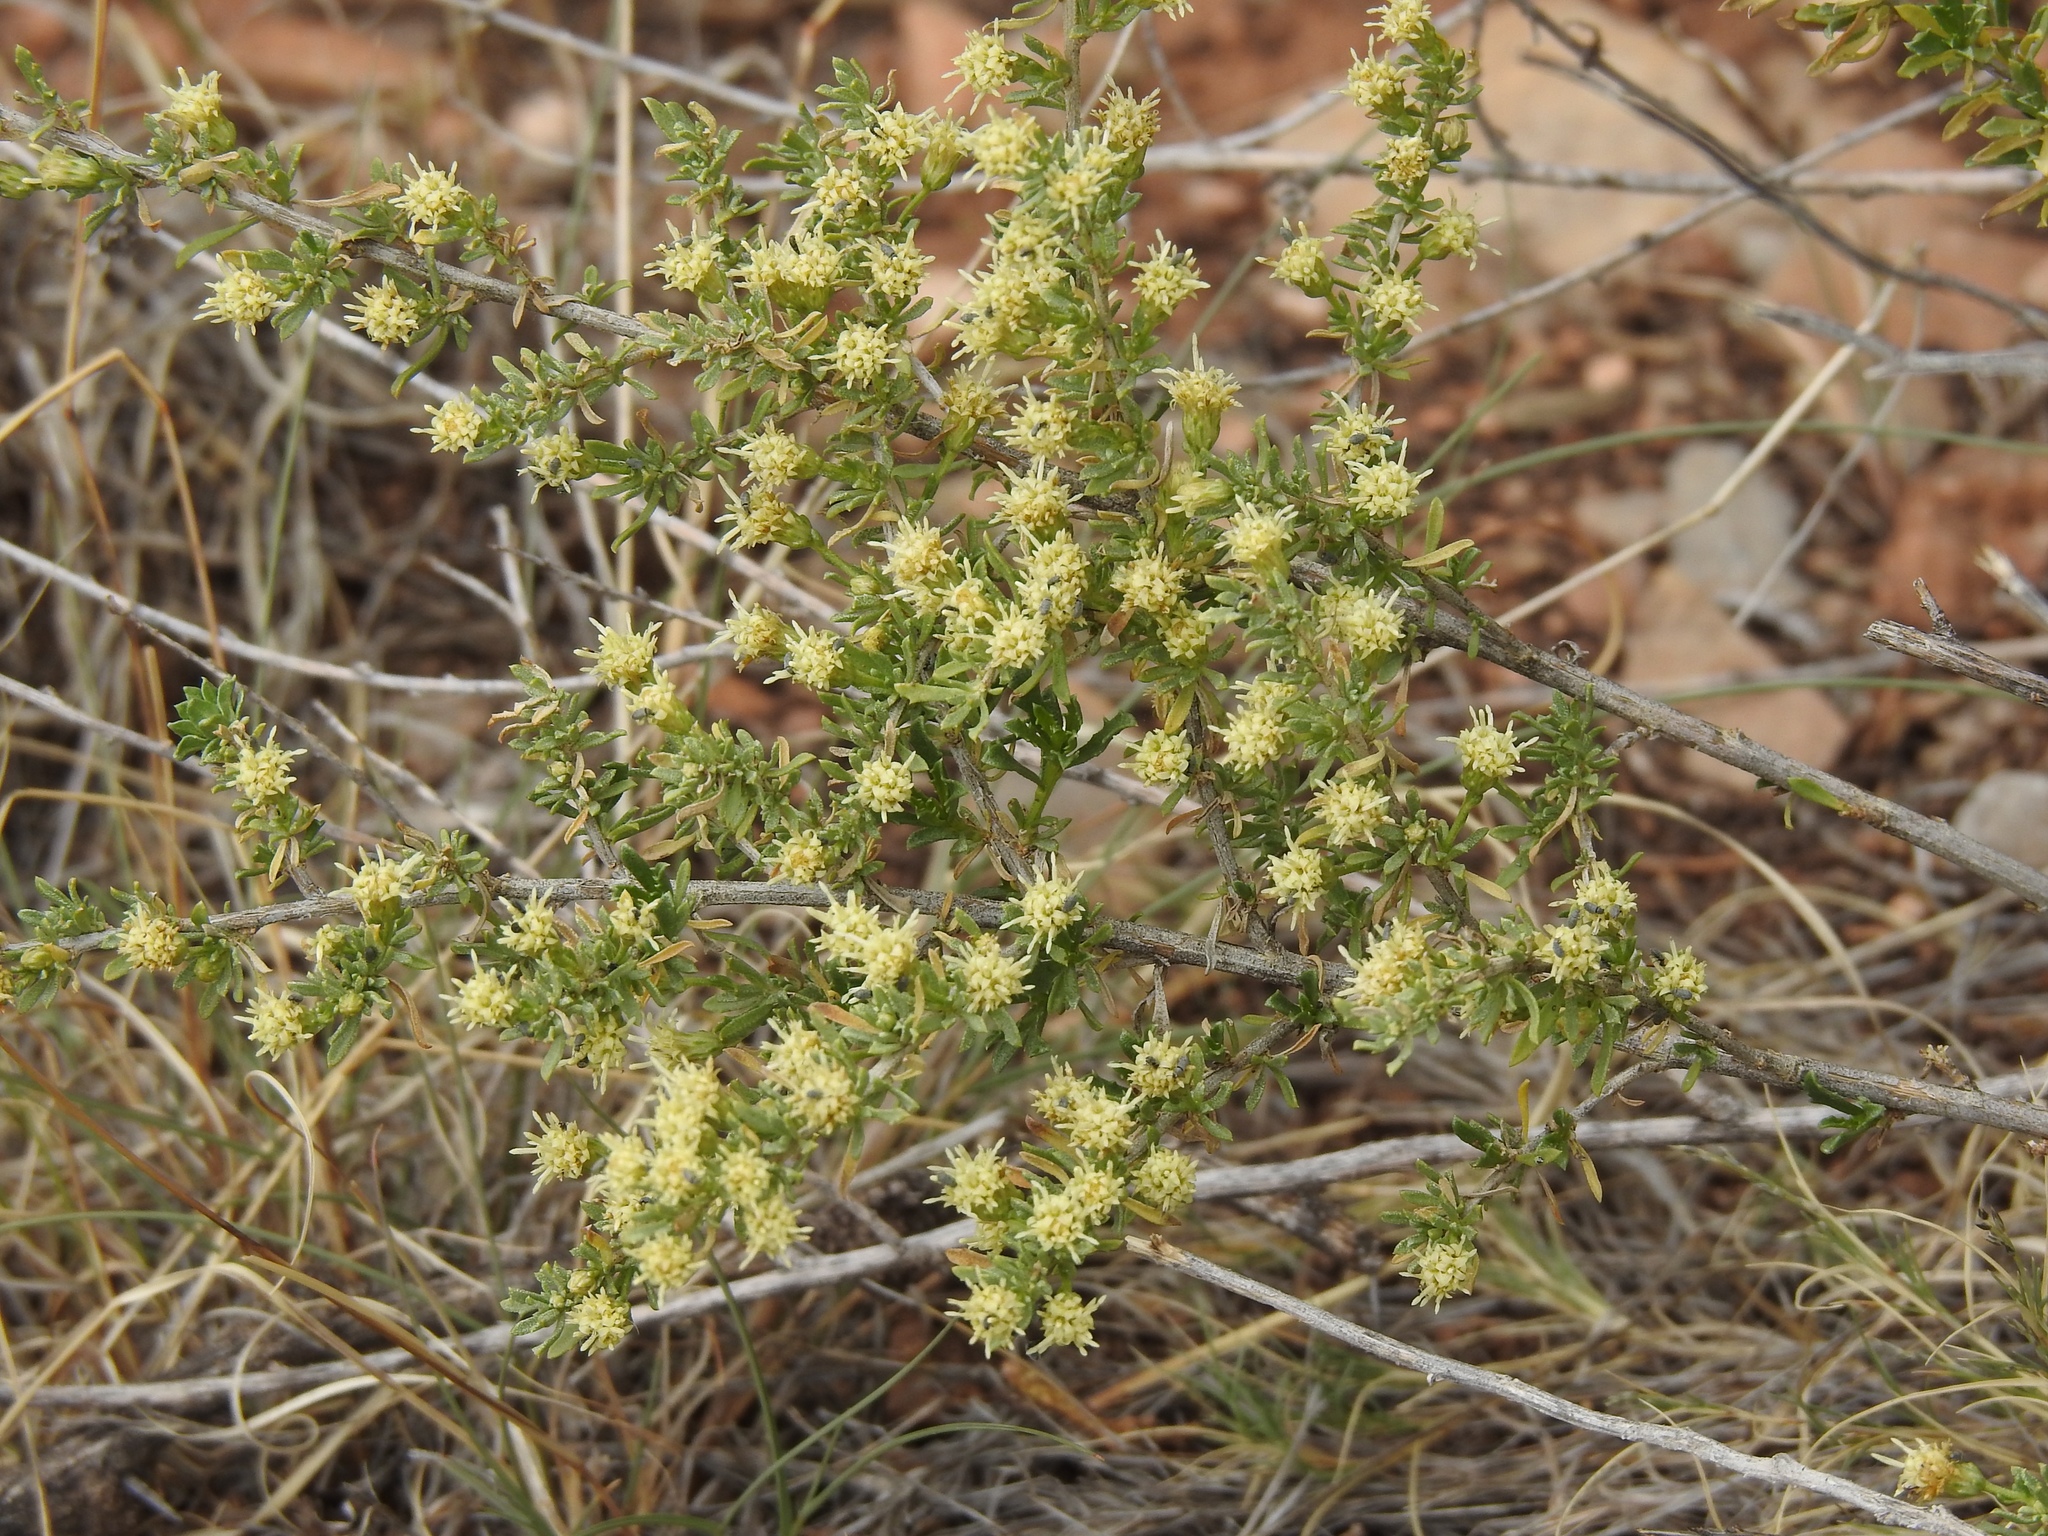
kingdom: Plantae
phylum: Tracheophyta
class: Magnoliopsida
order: Asterales
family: Asteraceae
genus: Baccharis
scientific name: Baccharis pteronioides
